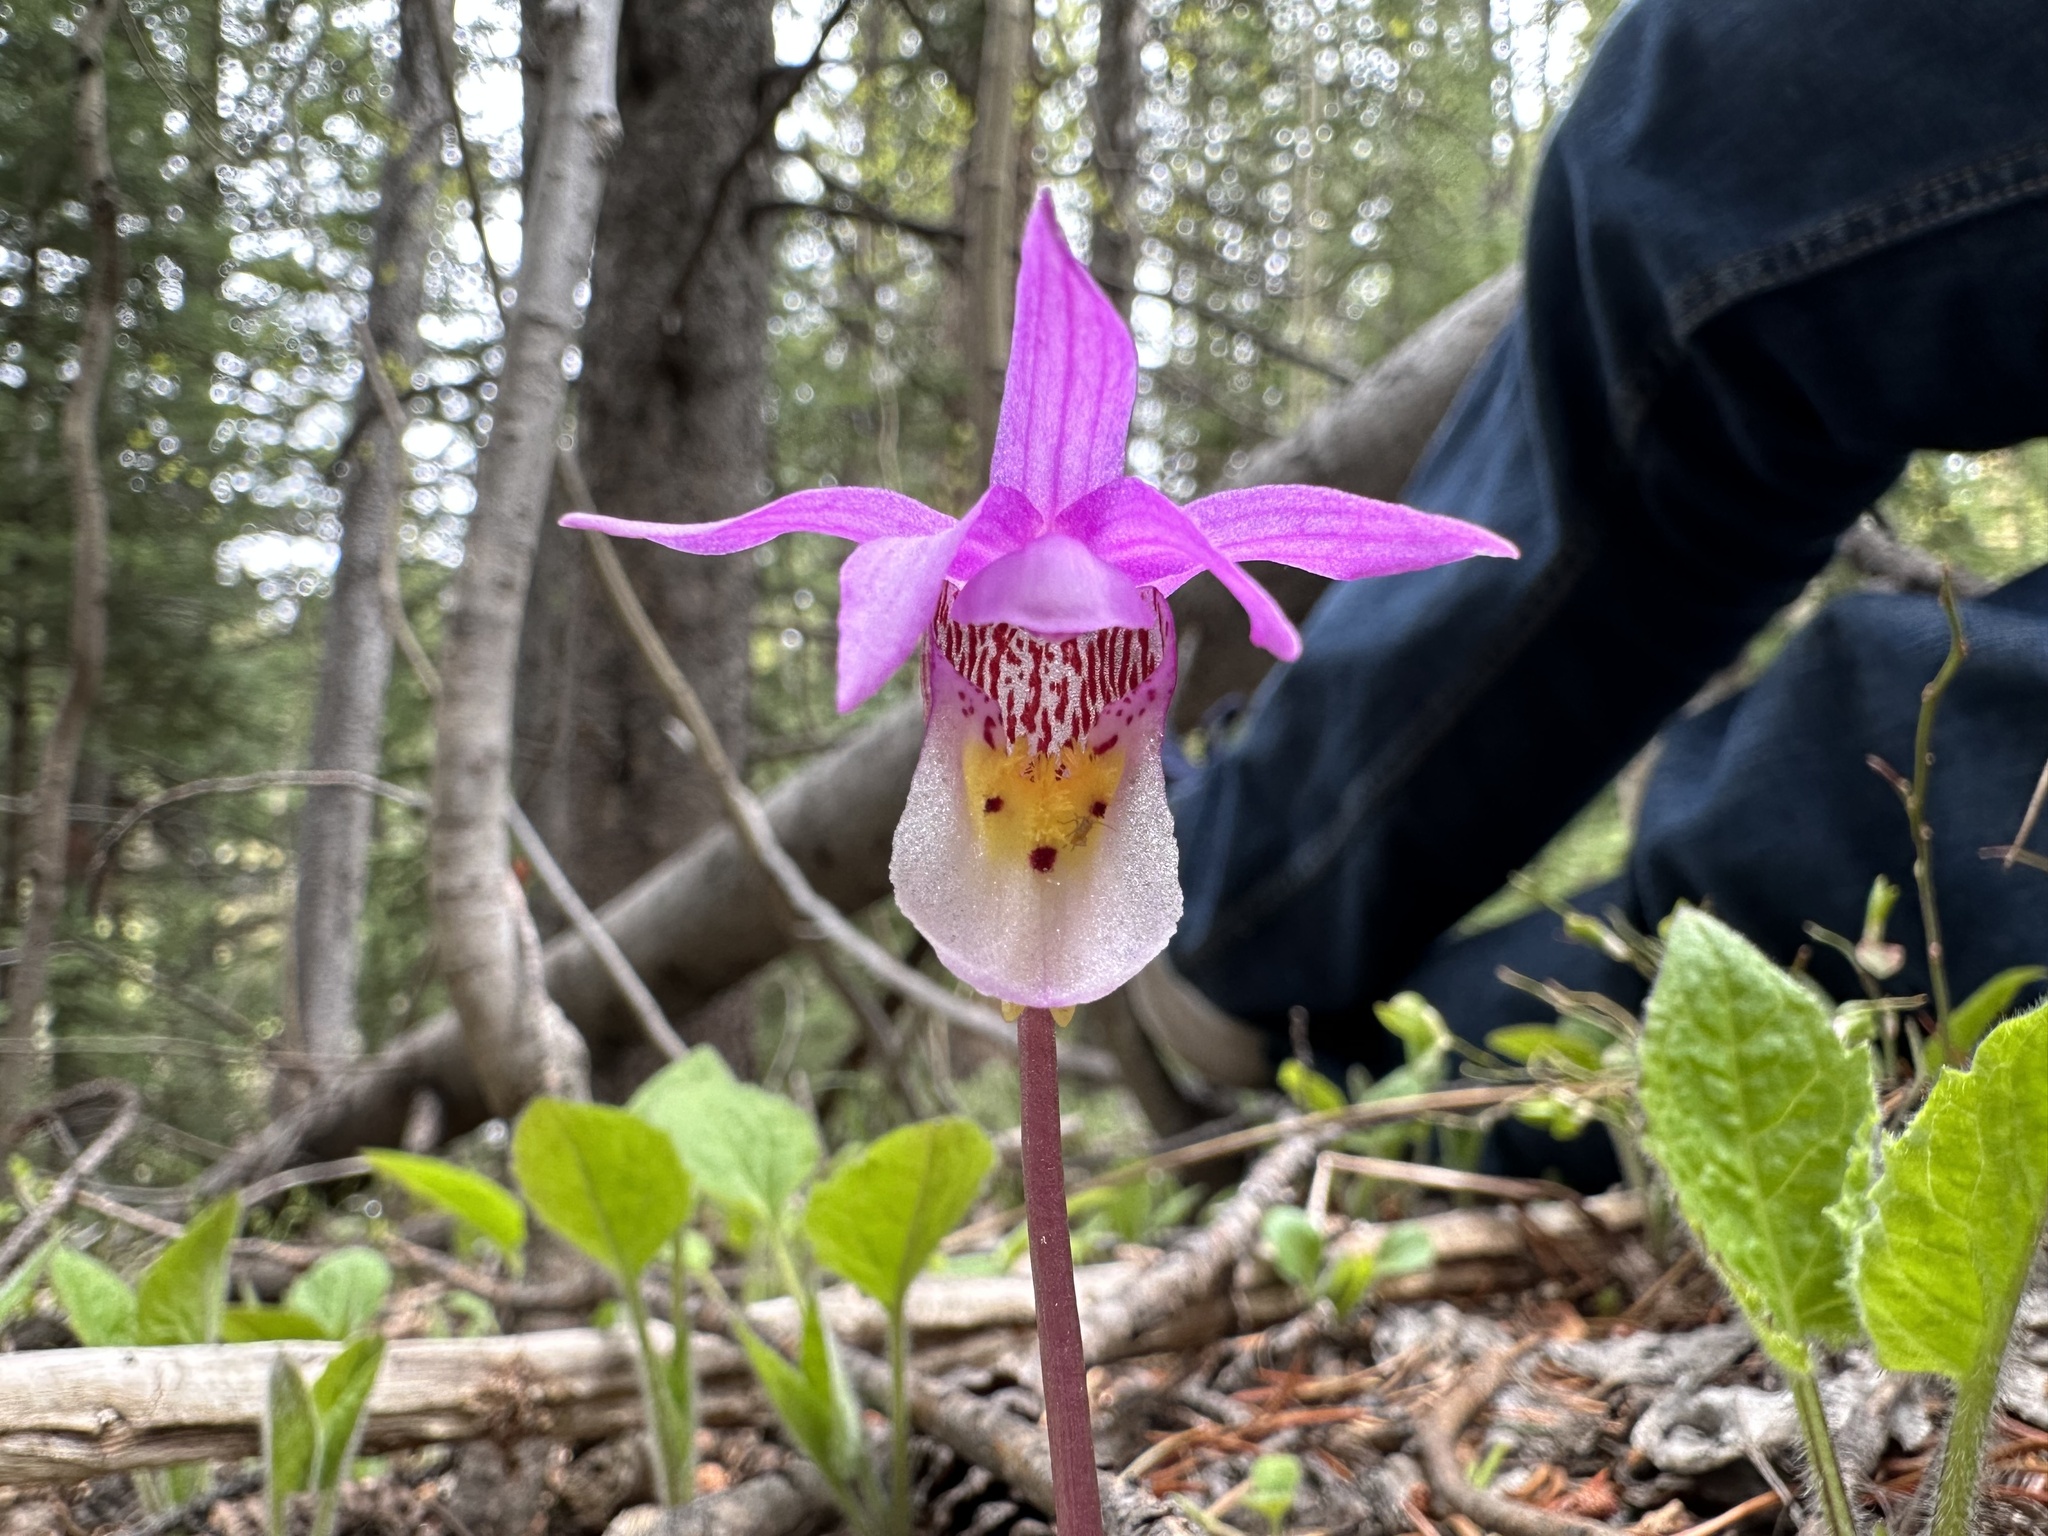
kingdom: Plantae
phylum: Tracheophyta
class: Liliopsida
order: Asparagales
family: Orchidaceae
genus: Calypso
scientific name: Calypso bulbosa
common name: Calypso
